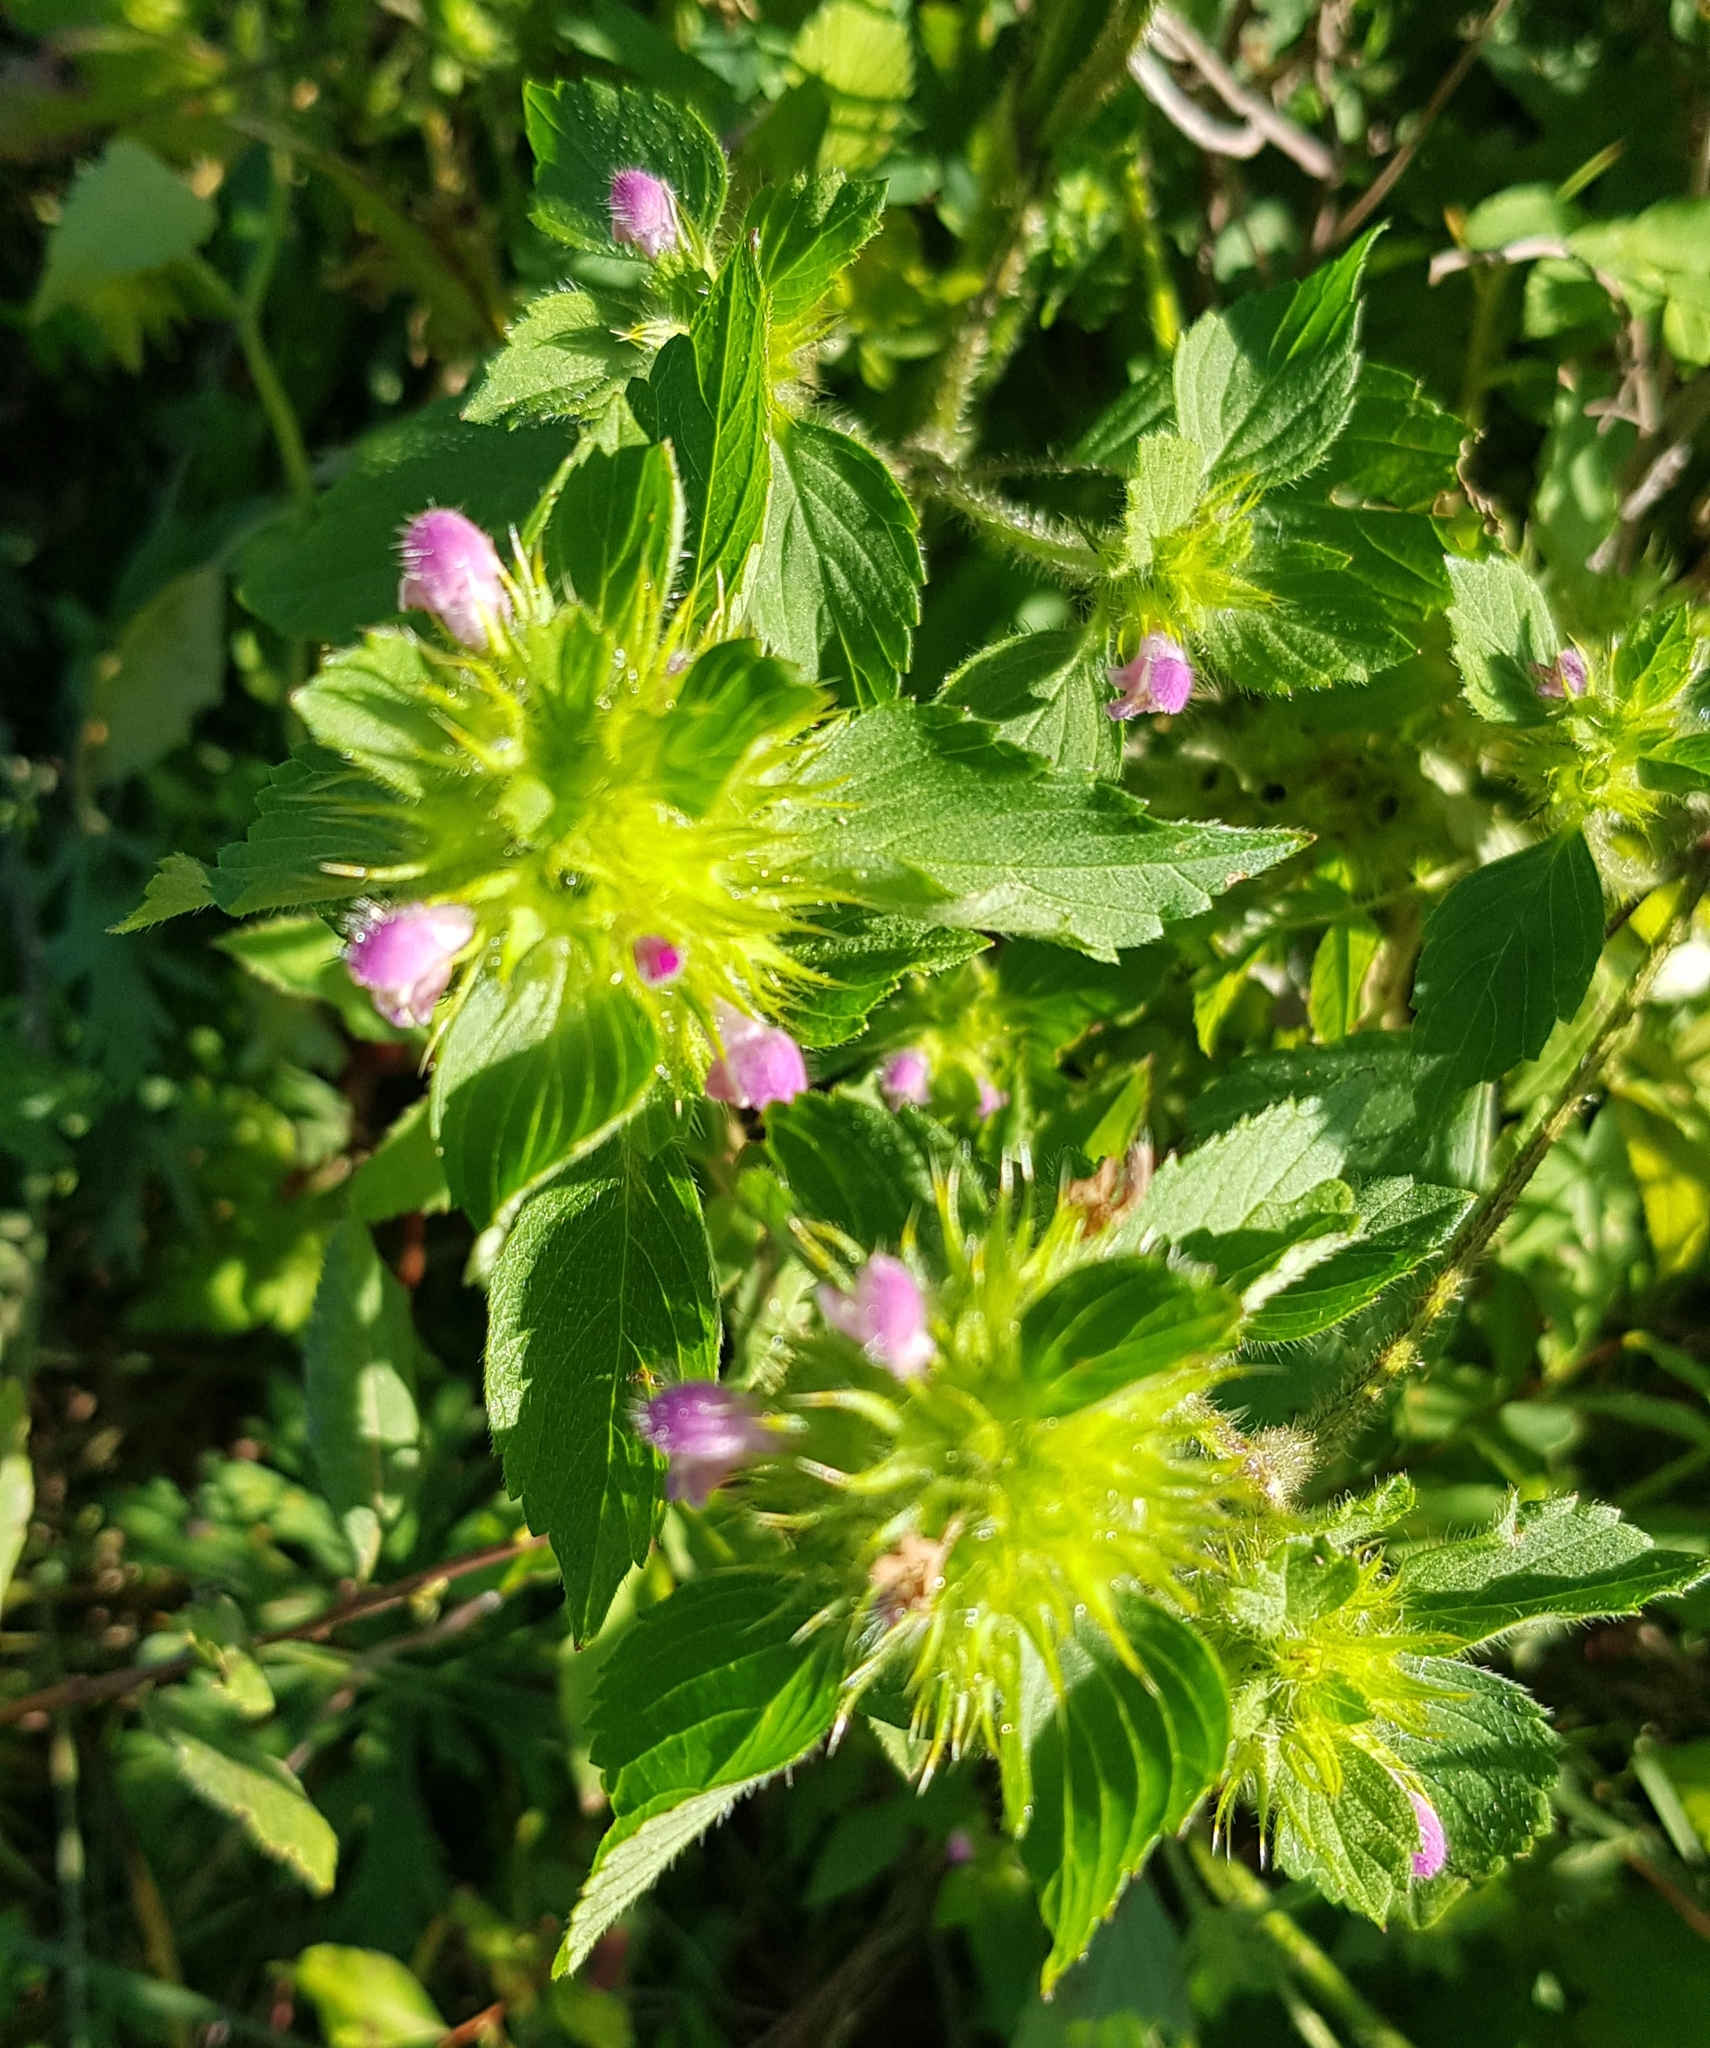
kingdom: Plantae
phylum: Tracheophyta
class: Magnoliopsida
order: Lamiales
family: Lamiaceae
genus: Galeopsis
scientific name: Galeopsis bifida
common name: Bifid hemp-nettle
